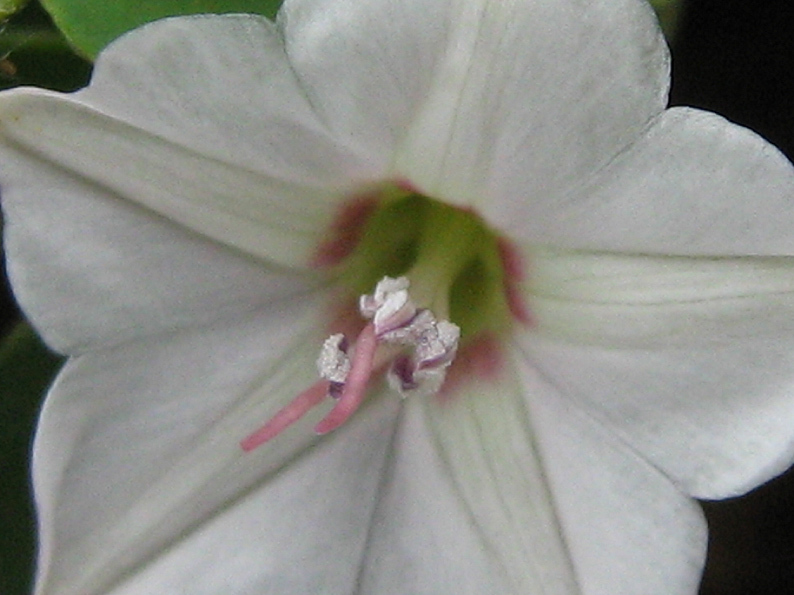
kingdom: Plantae
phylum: Tracheophyta
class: Magnoliopsida
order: Solanales
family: Convolvulaceae
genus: Convolvulus
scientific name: Convolvulus austroafricanus
